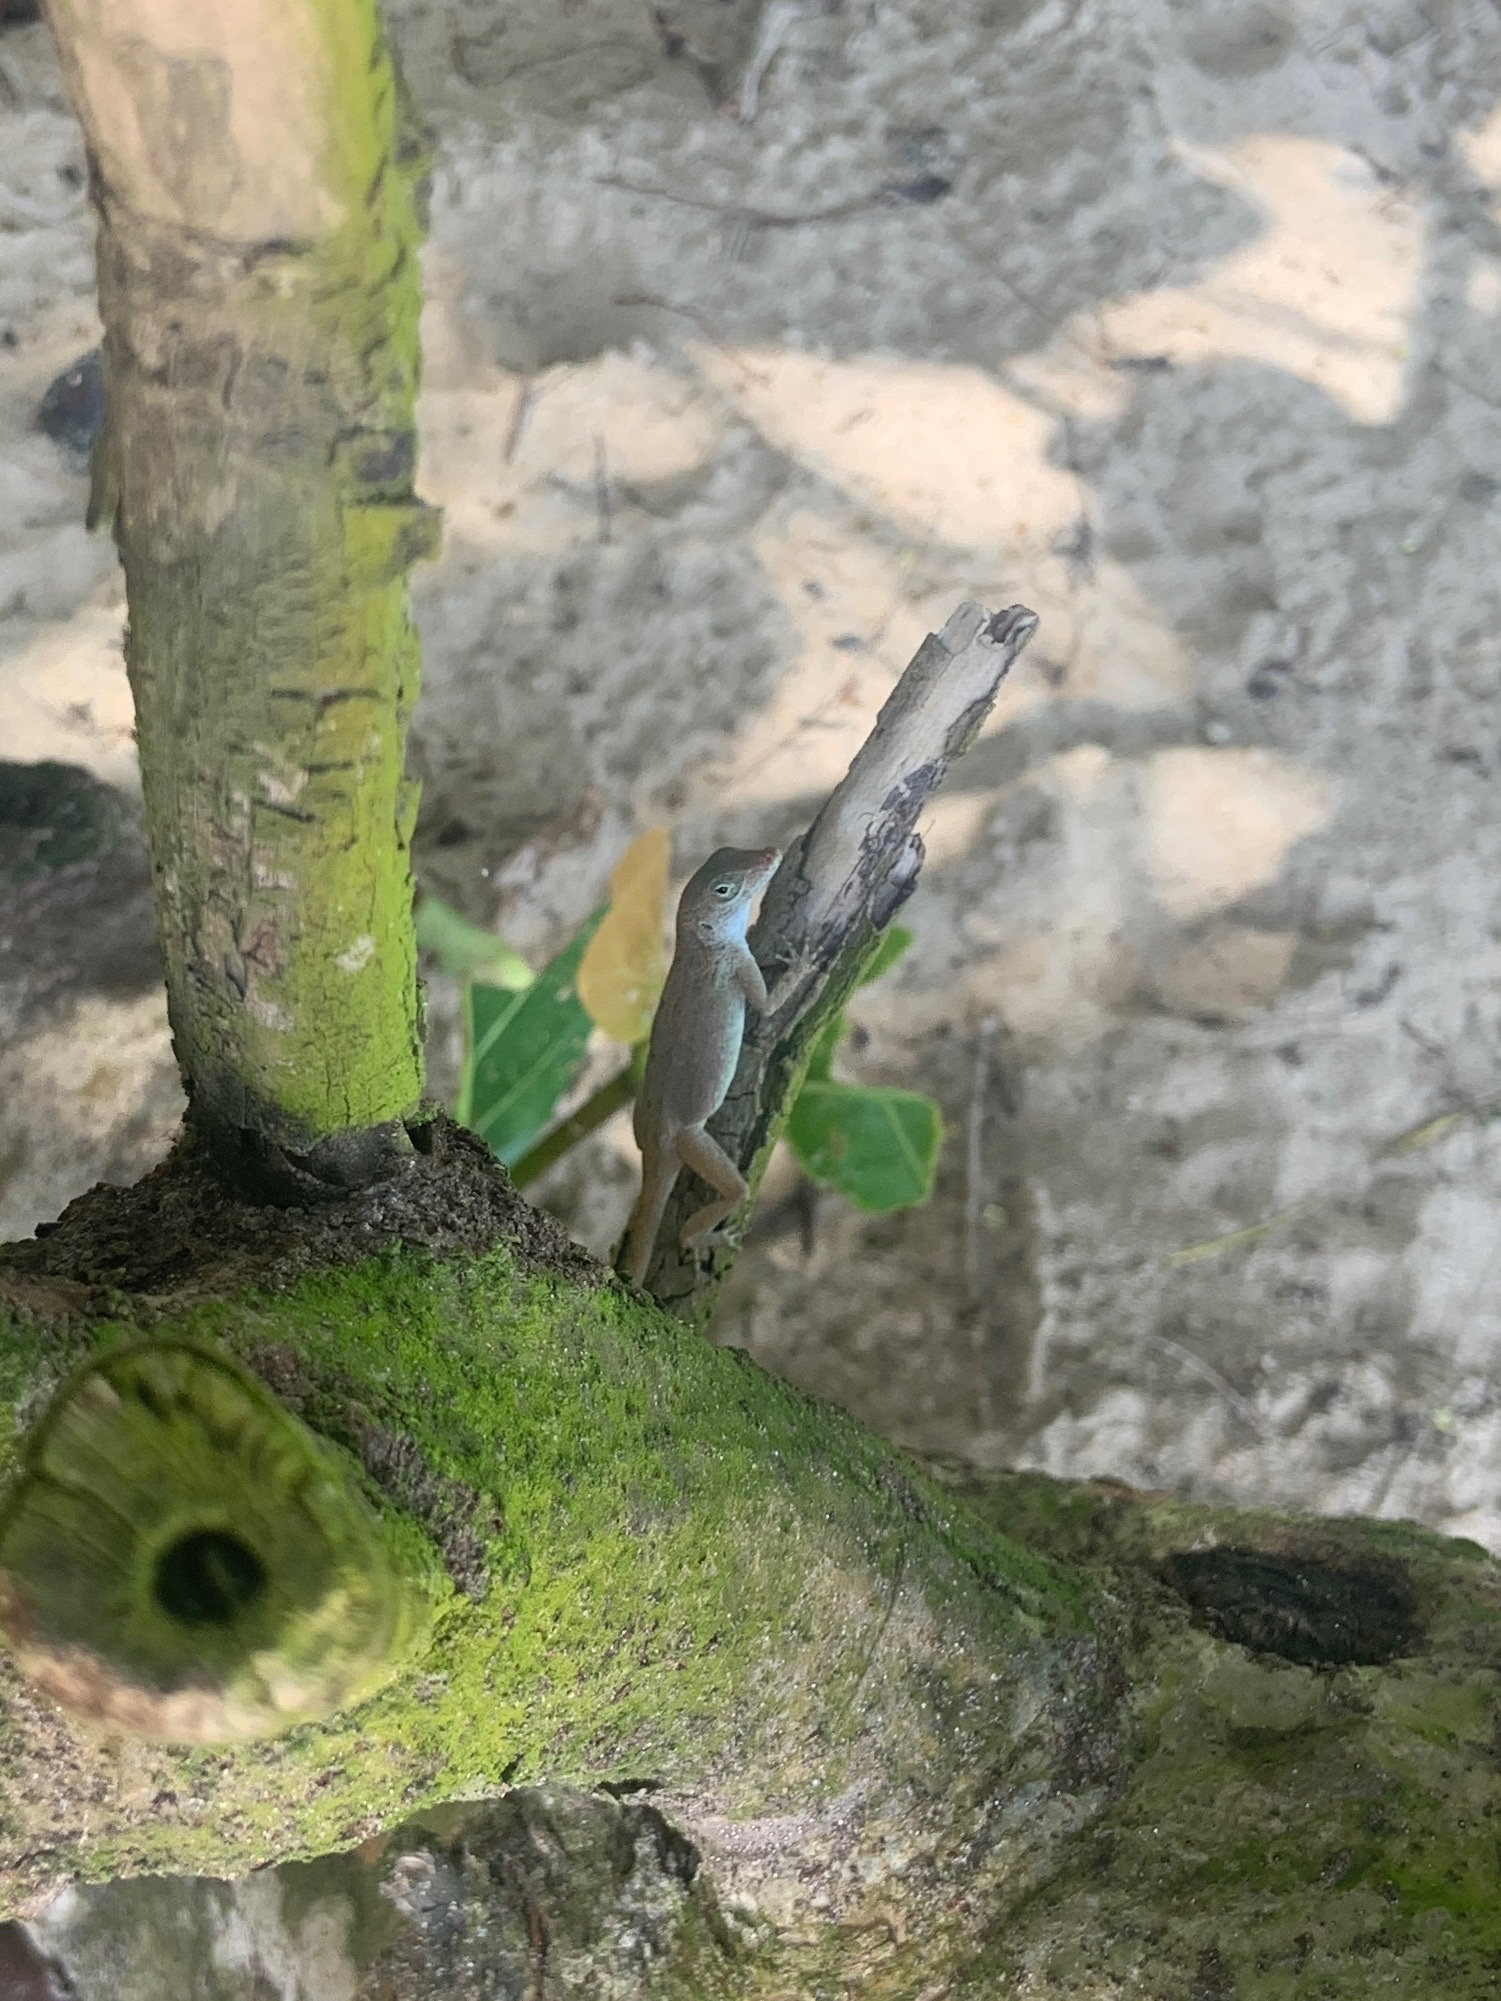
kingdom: Animalia
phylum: Chordata
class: Squamata
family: Dactyloidae
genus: Anolis
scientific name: Anolis cristatellus
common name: Crested anole
